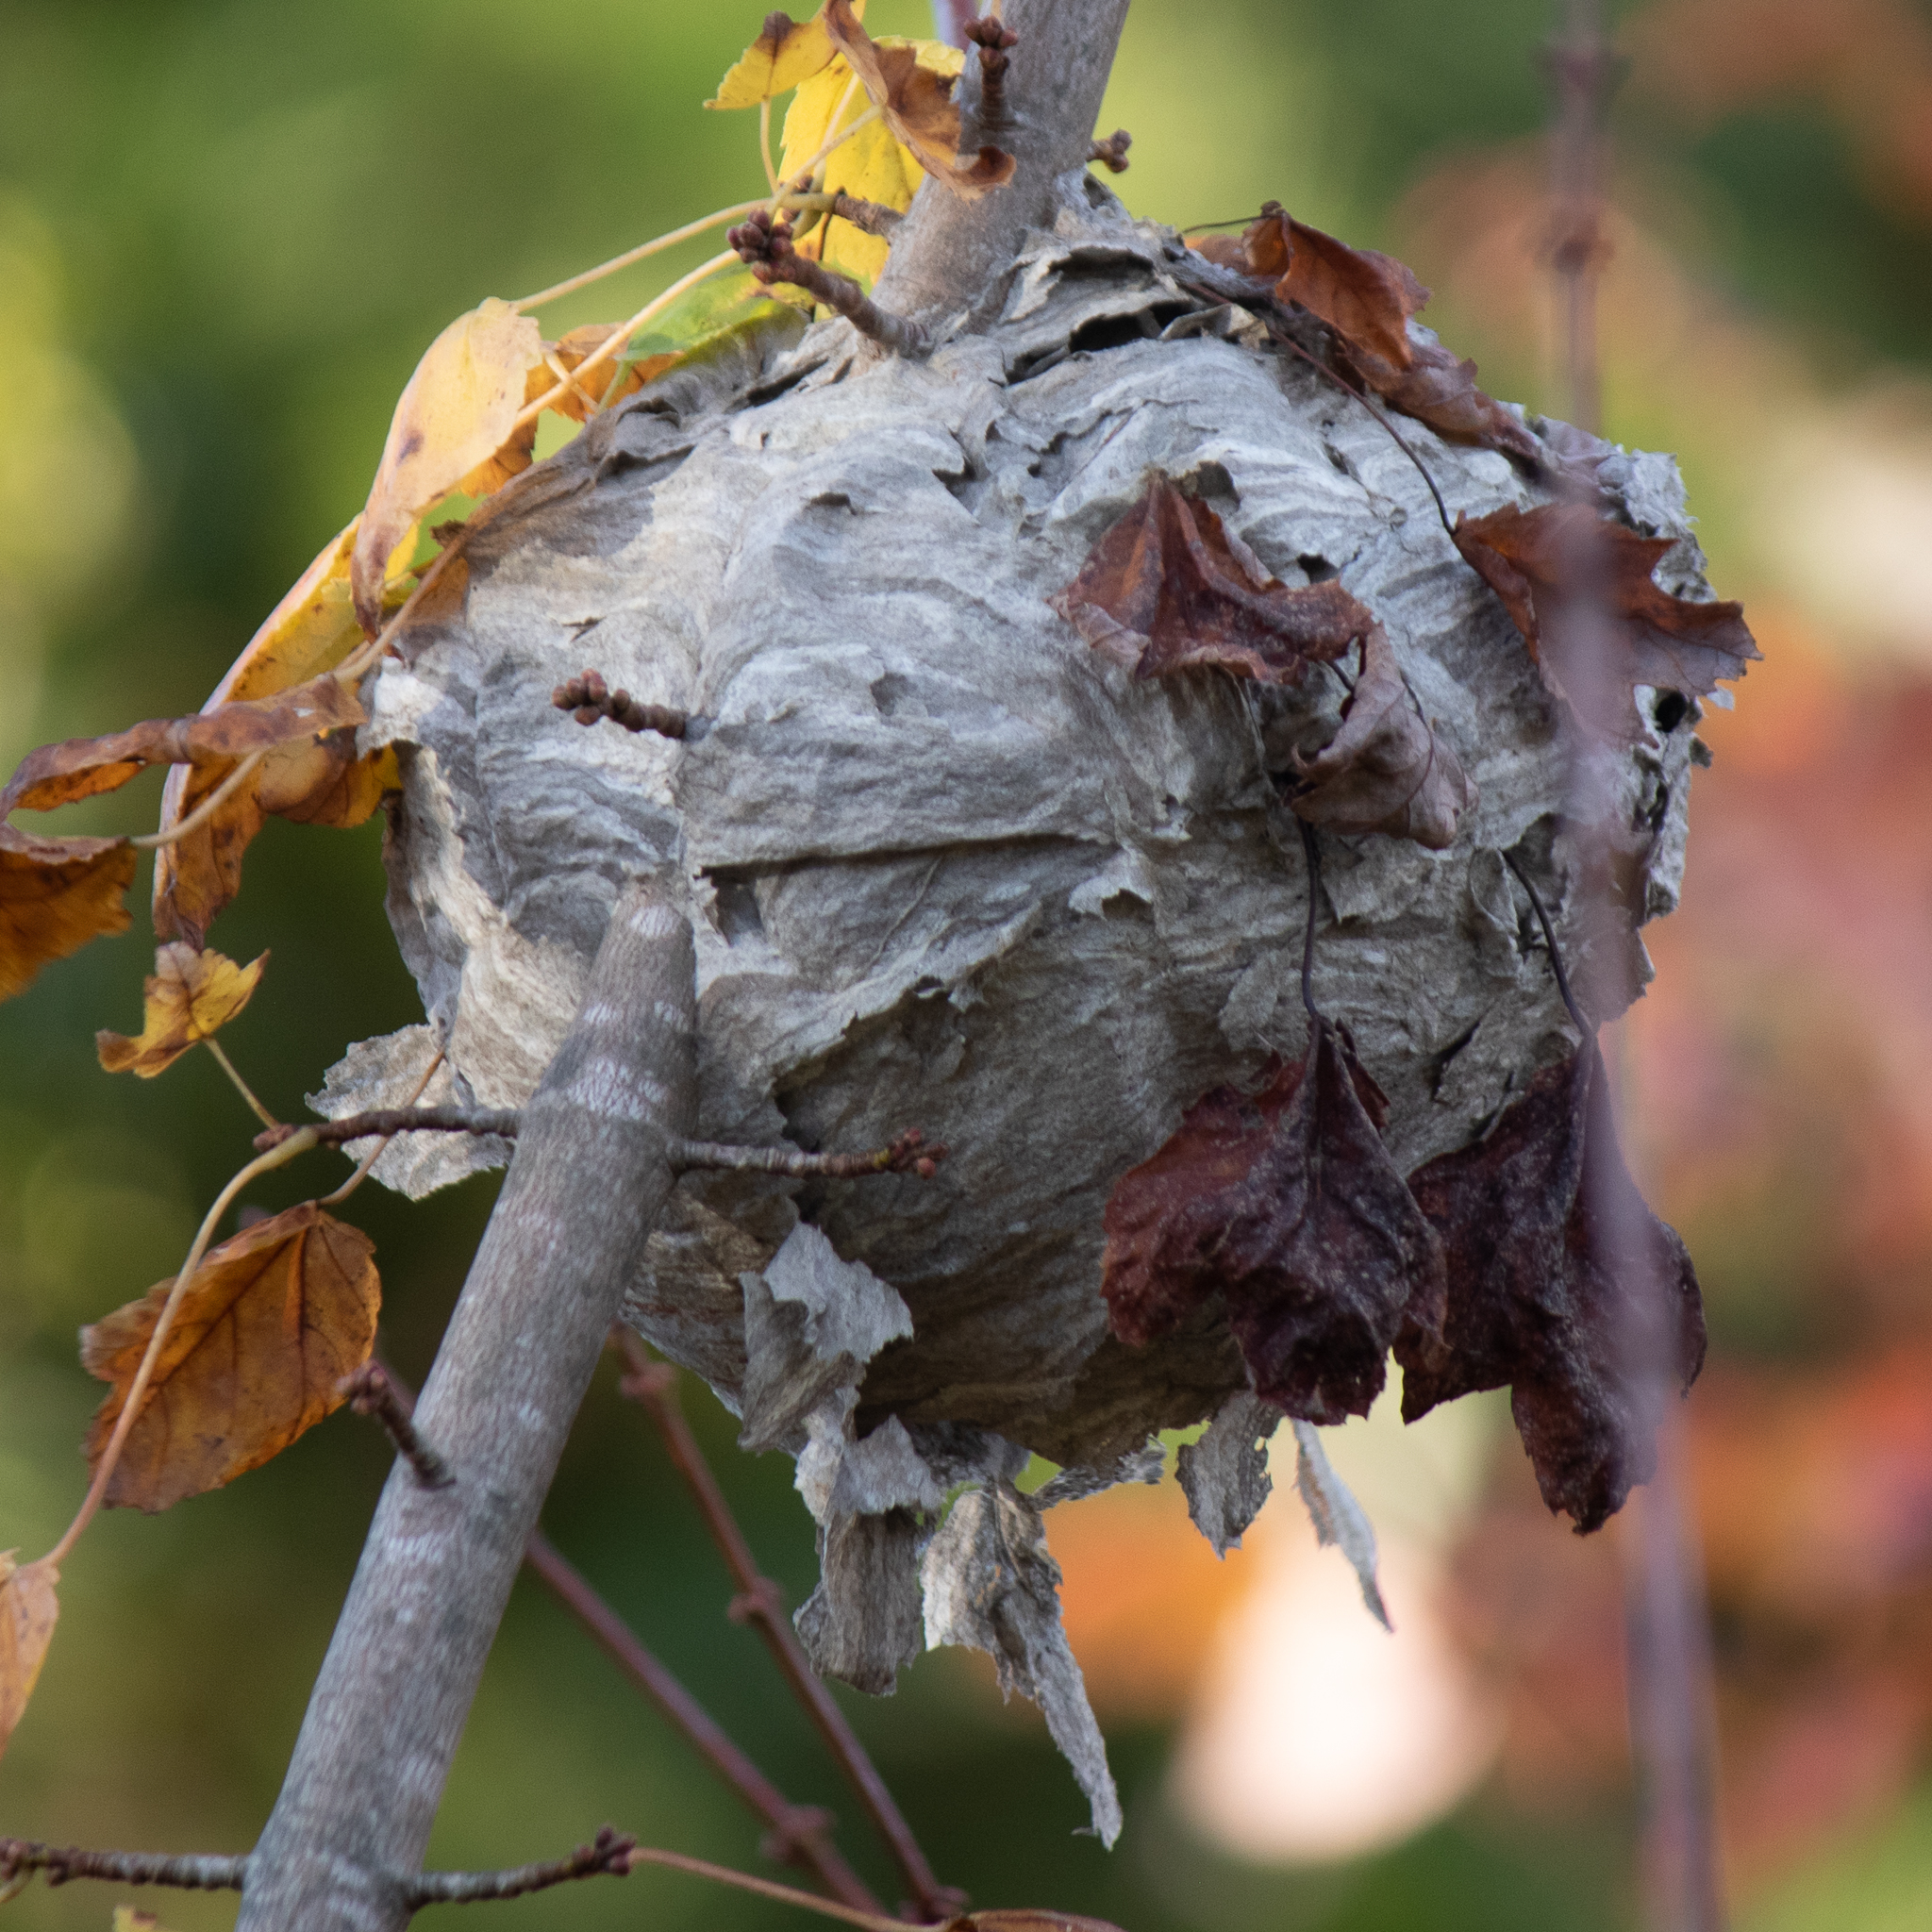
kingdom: Animalia
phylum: Arthropoda
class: Insecta
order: Hymenoptera
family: Vespidae
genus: Dolichovespula
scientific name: Dolichovespula
